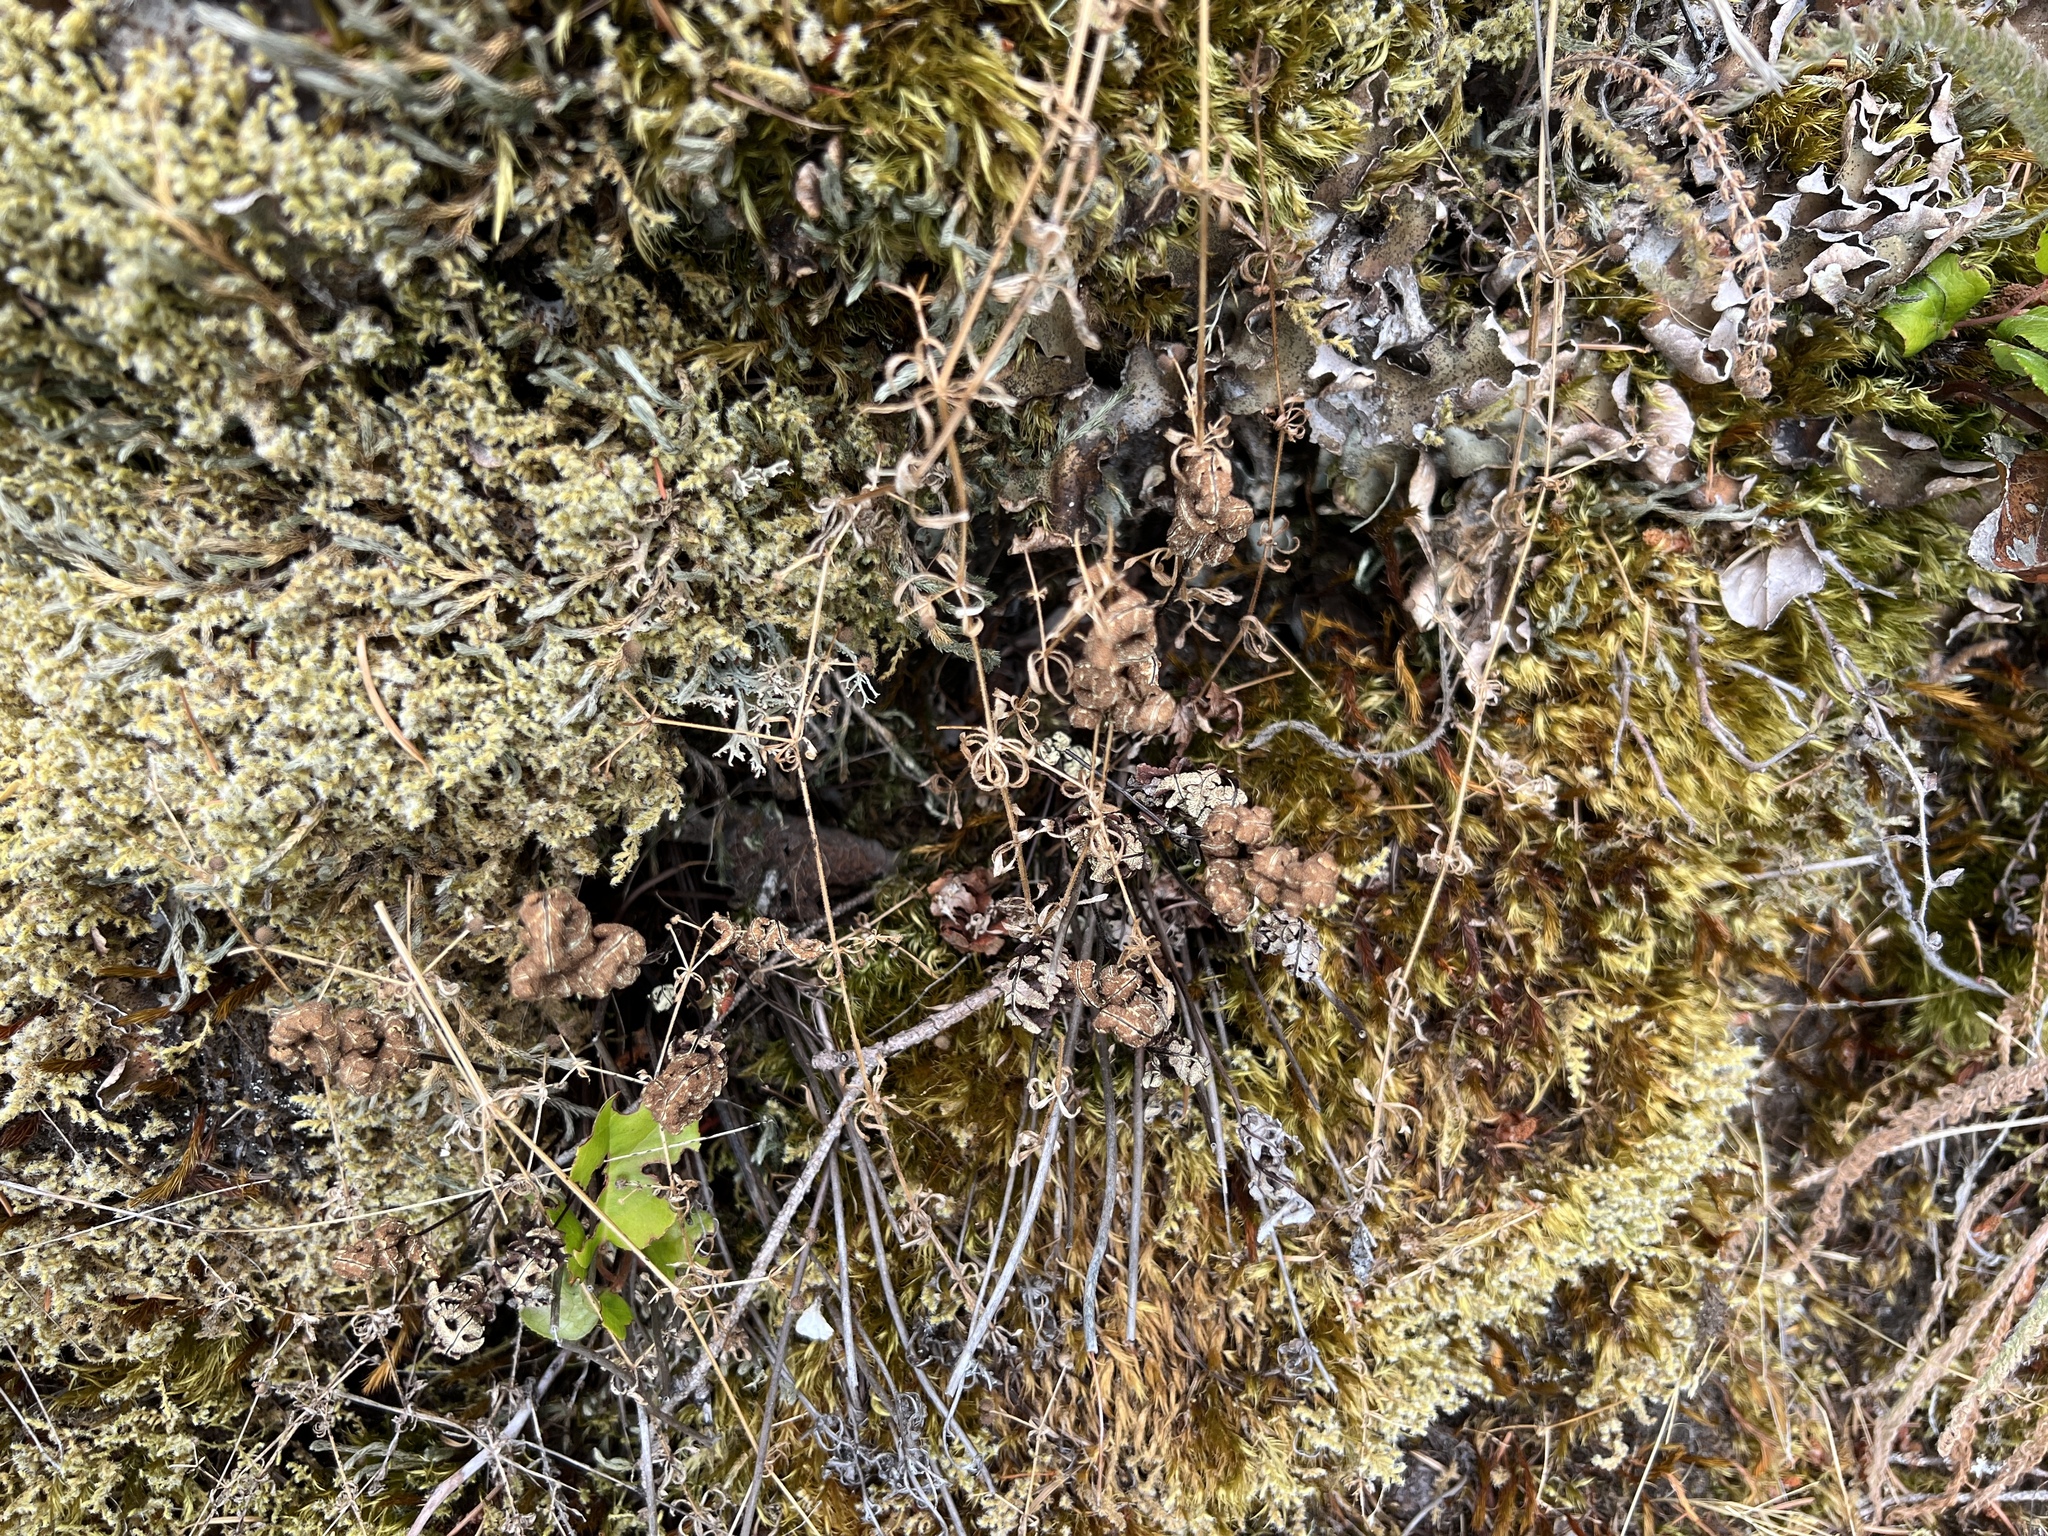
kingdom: Plantae
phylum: Tracheophyta
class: Polypodiopsida
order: Polypodiales
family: Pteridaceae
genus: Pentagramma
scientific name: Pentagramma triangularis
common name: Gold fern
